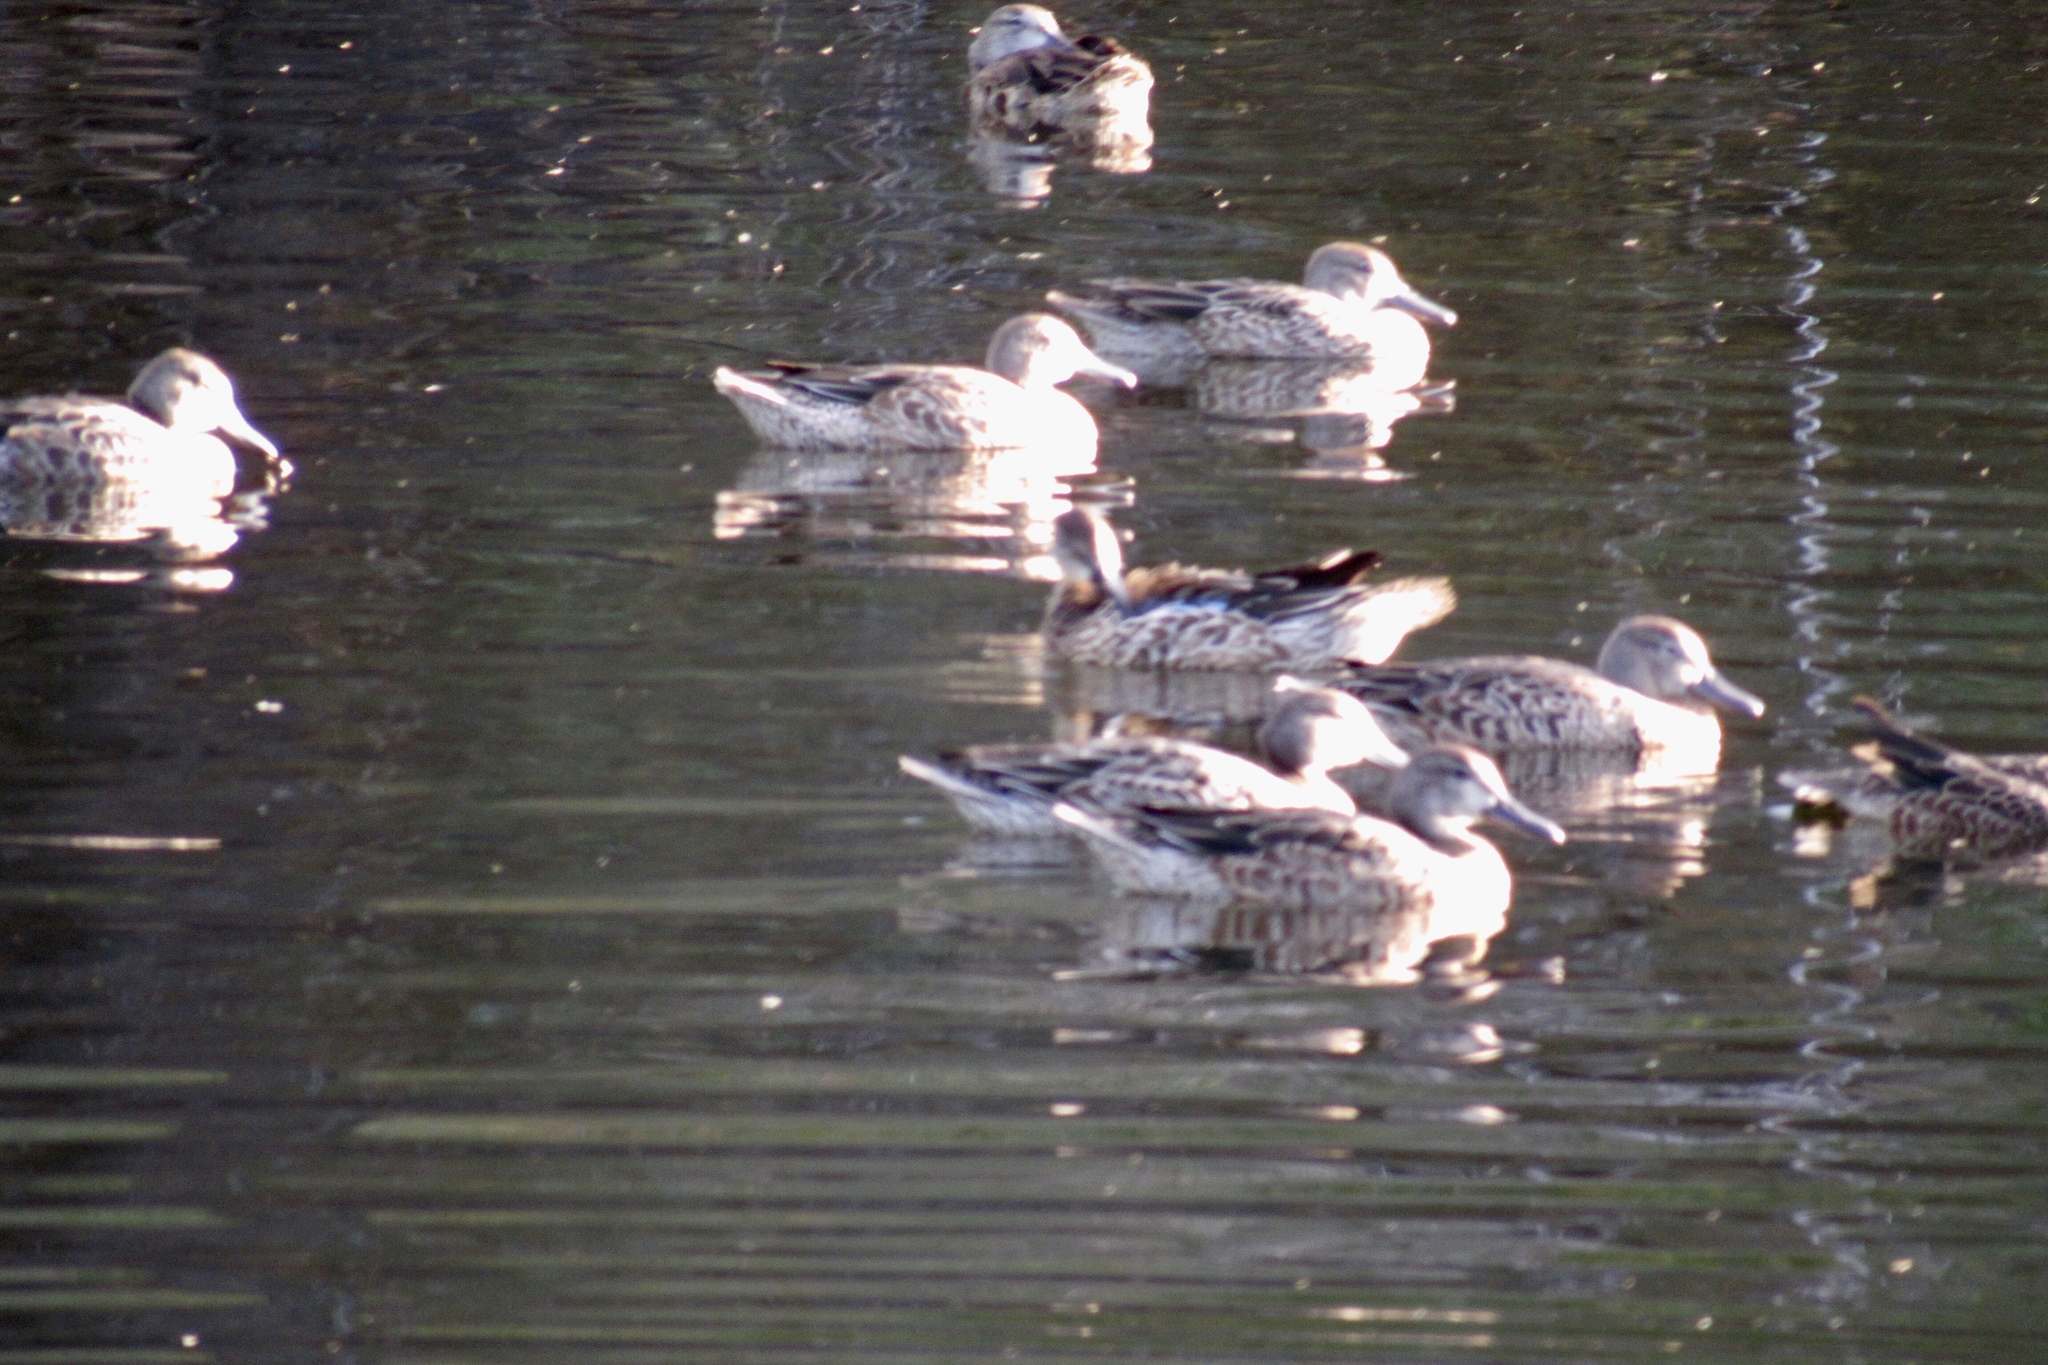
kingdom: Animalia
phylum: Chordata
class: Aves
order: Anseriformes
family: Anatidae
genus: Spatula
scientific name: Spatula discors
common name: Blue-winged teal
